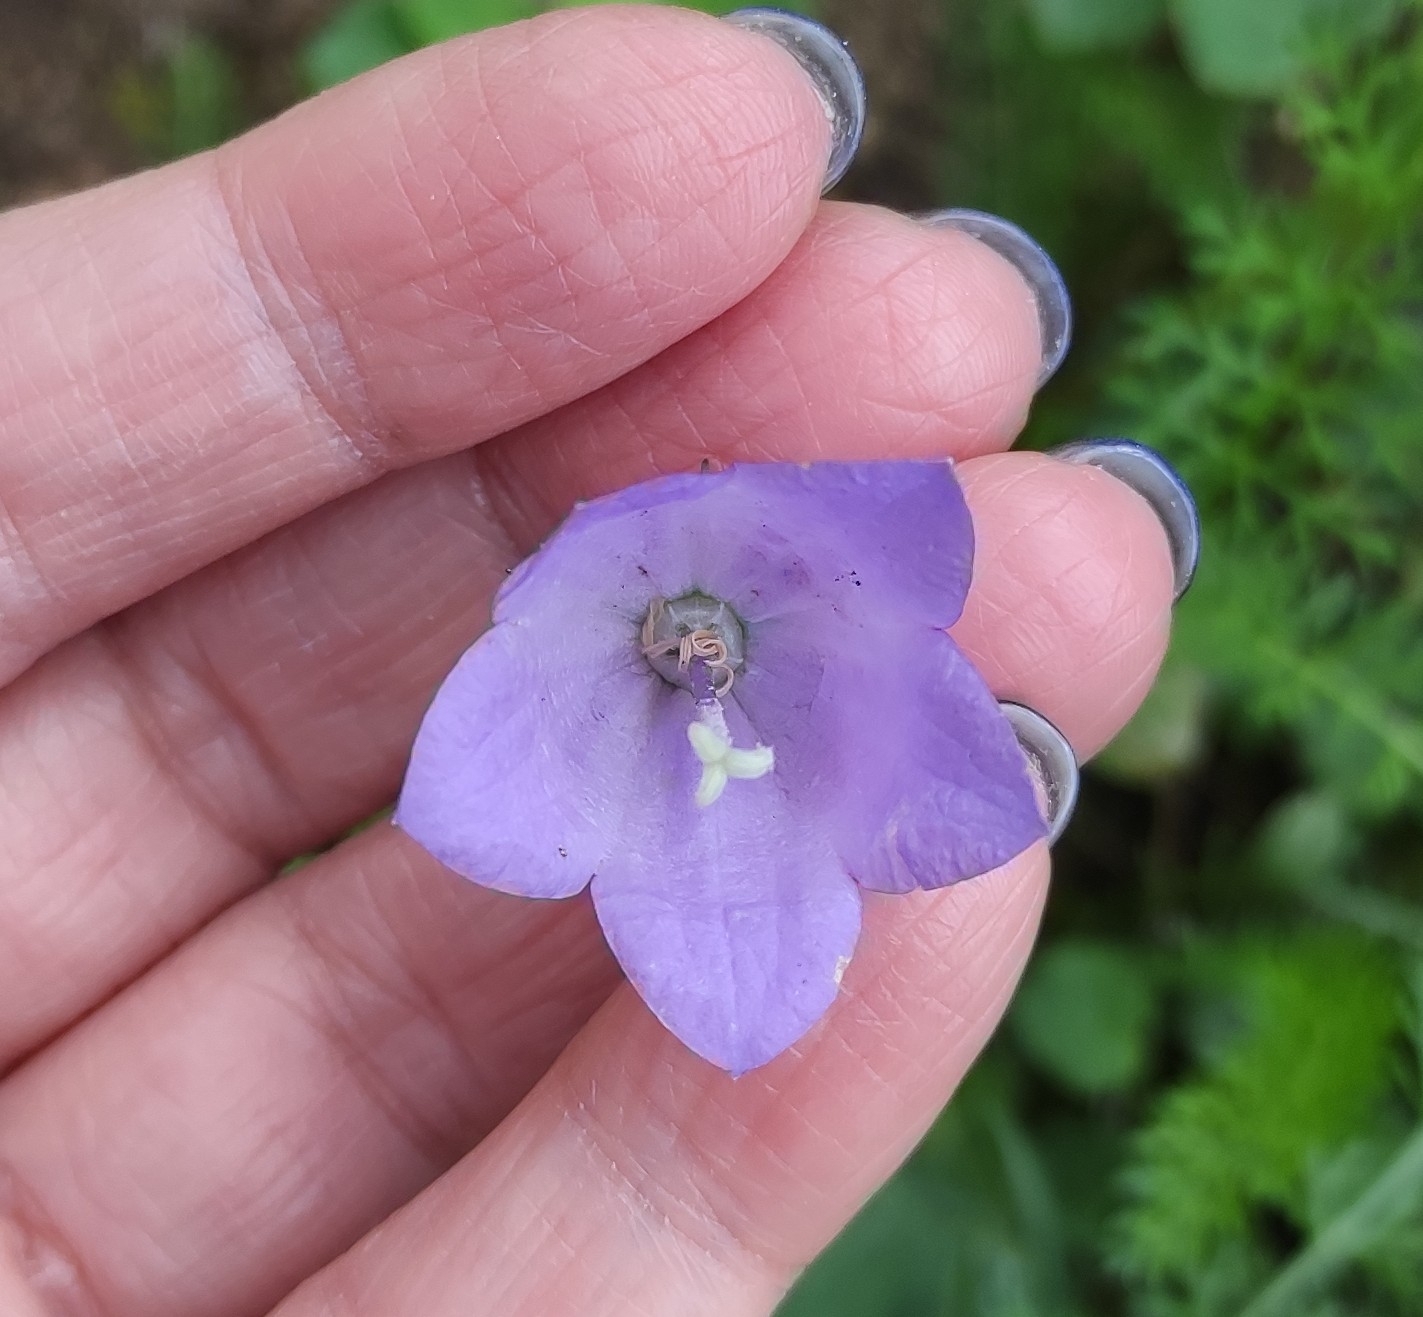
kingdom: Plantae
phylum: Tracheophyta
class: Magnoliopsida
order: Asterales
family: Campanulaceae
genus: Campanula
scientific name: Campanula rotundifolia
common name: Harebell
